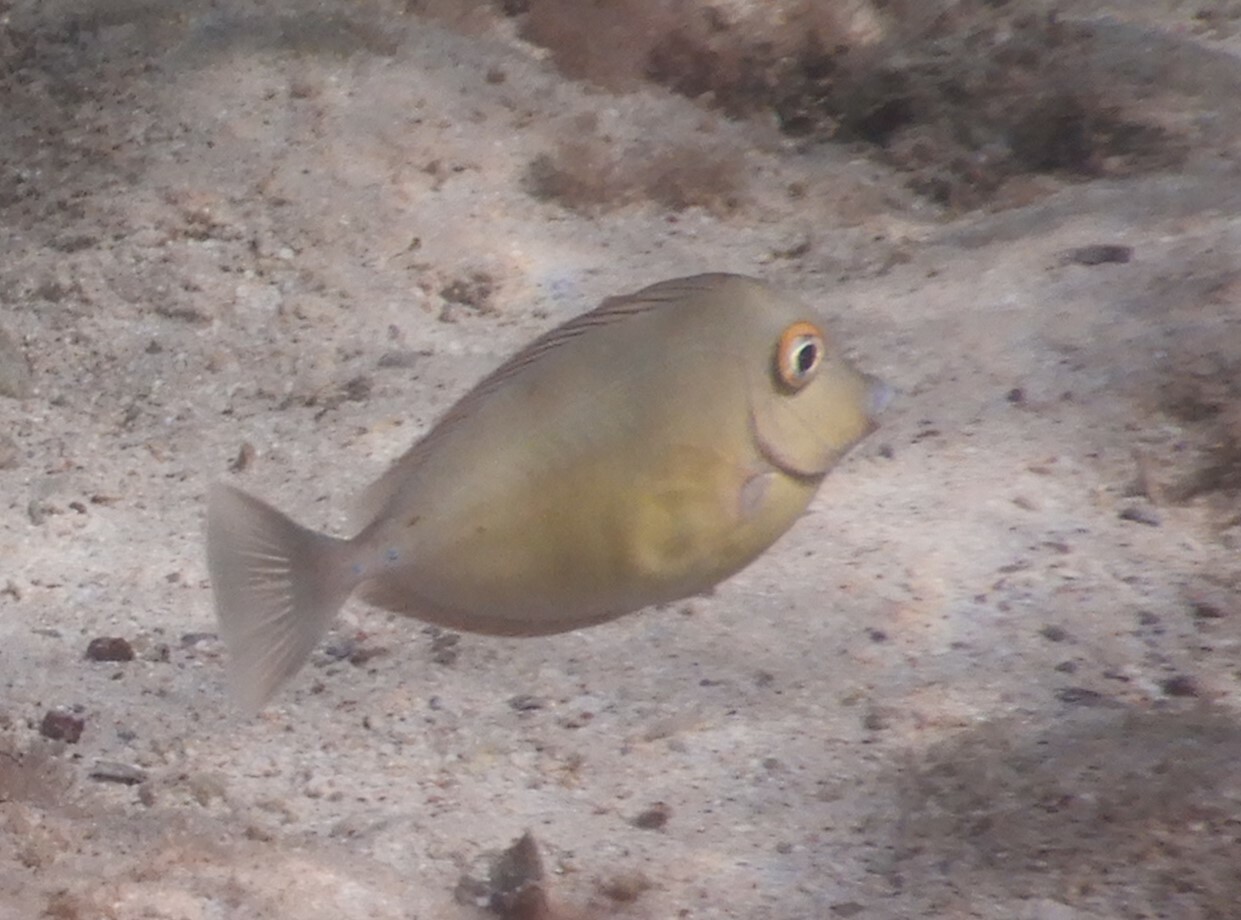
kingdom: Animalia
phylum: Chordata
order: Perciformes
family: Acanthuridae
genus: Naso
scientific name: Naso unicornis
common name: Bluespine unicornfish
